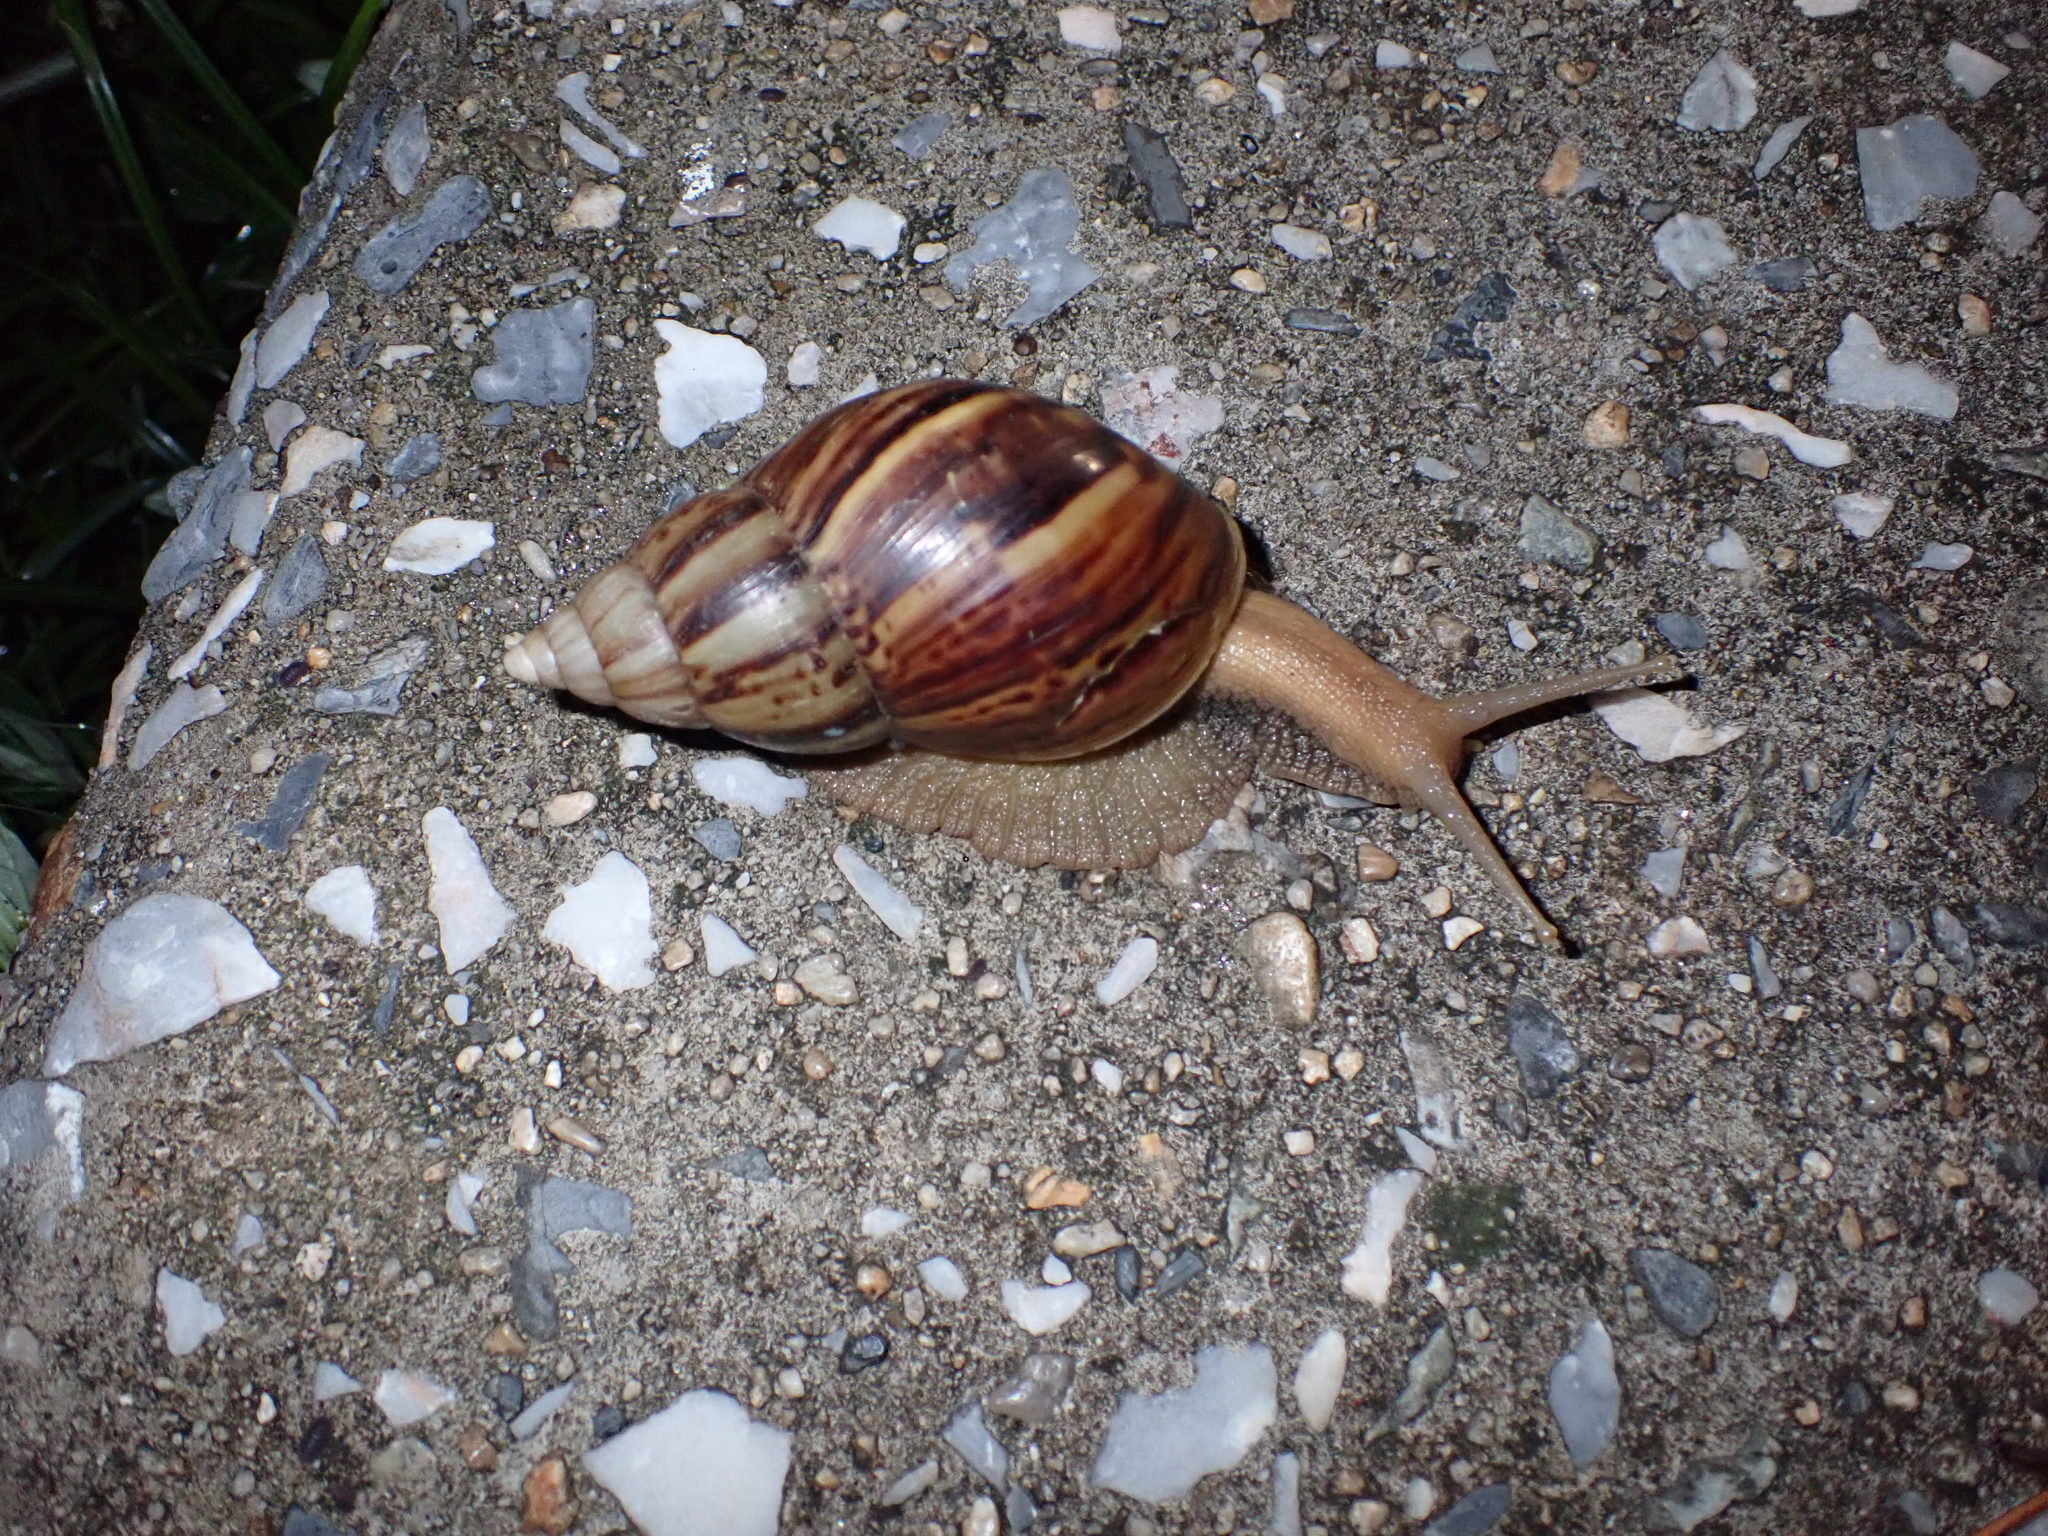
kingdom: Animalia
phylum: Mollusca
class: Gastropoda
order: Stylommatophora
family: Achatinidae
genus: Lissachatina
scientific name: Lissachatina fulica
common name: Giant african snail
